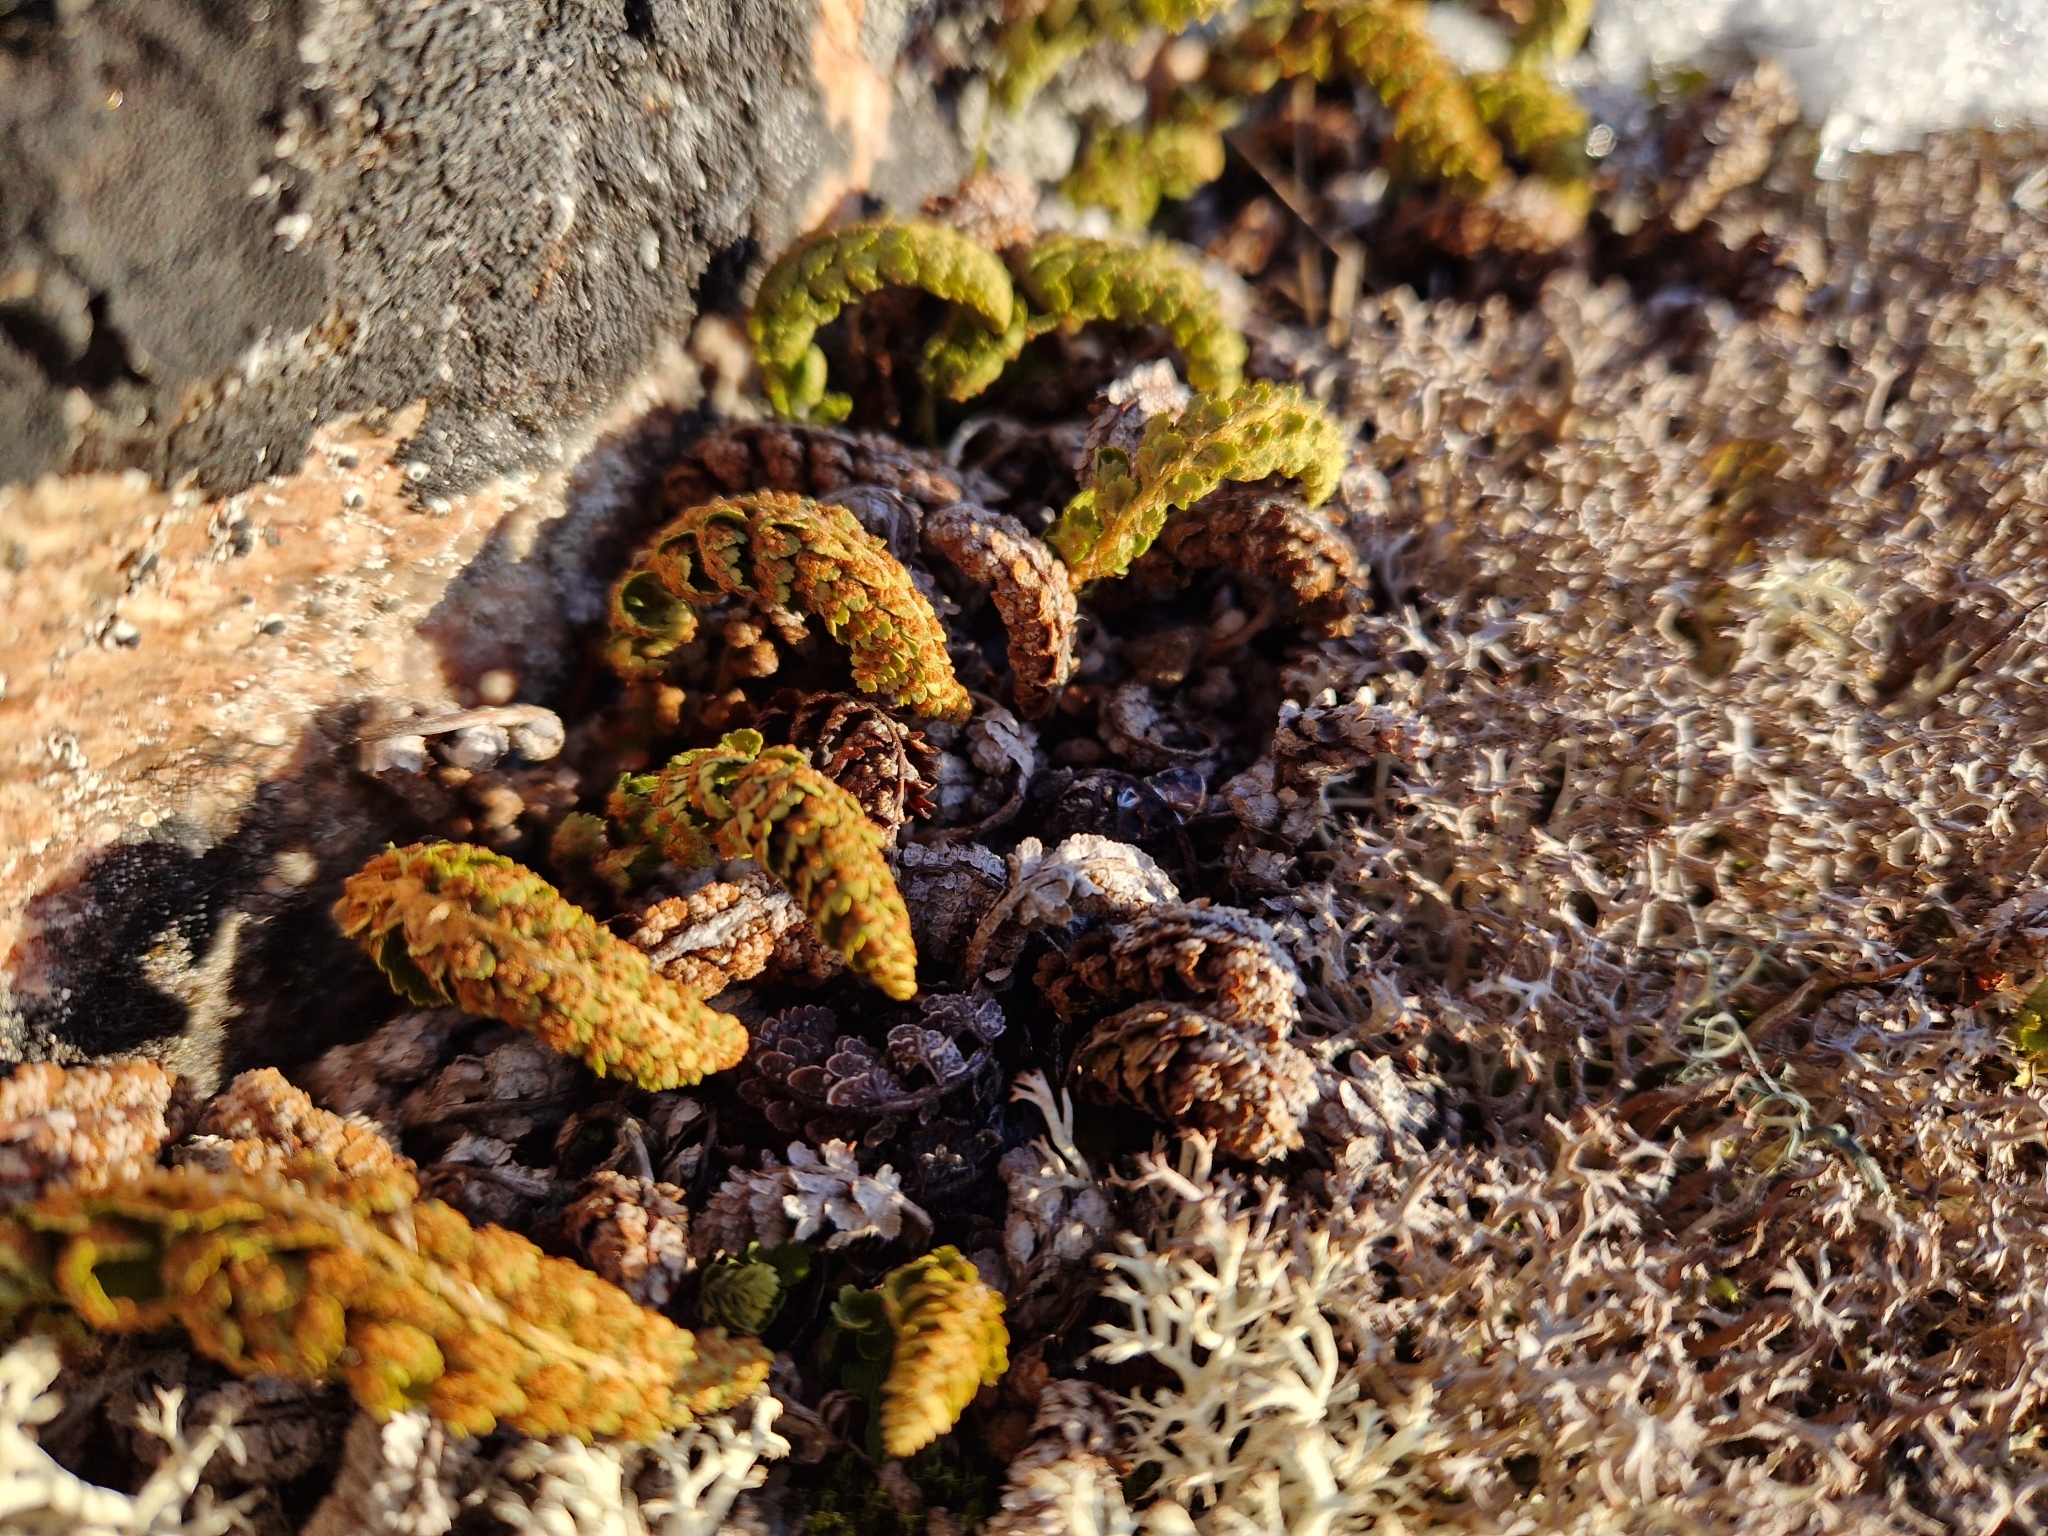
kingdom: Plantae
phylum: Tracheophyta
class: Polypodiopsida
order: Polypodiales
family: Woodsiaceae
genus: Woodsia
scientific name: Woodsia ilvensis
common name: Fragrant woodsia
